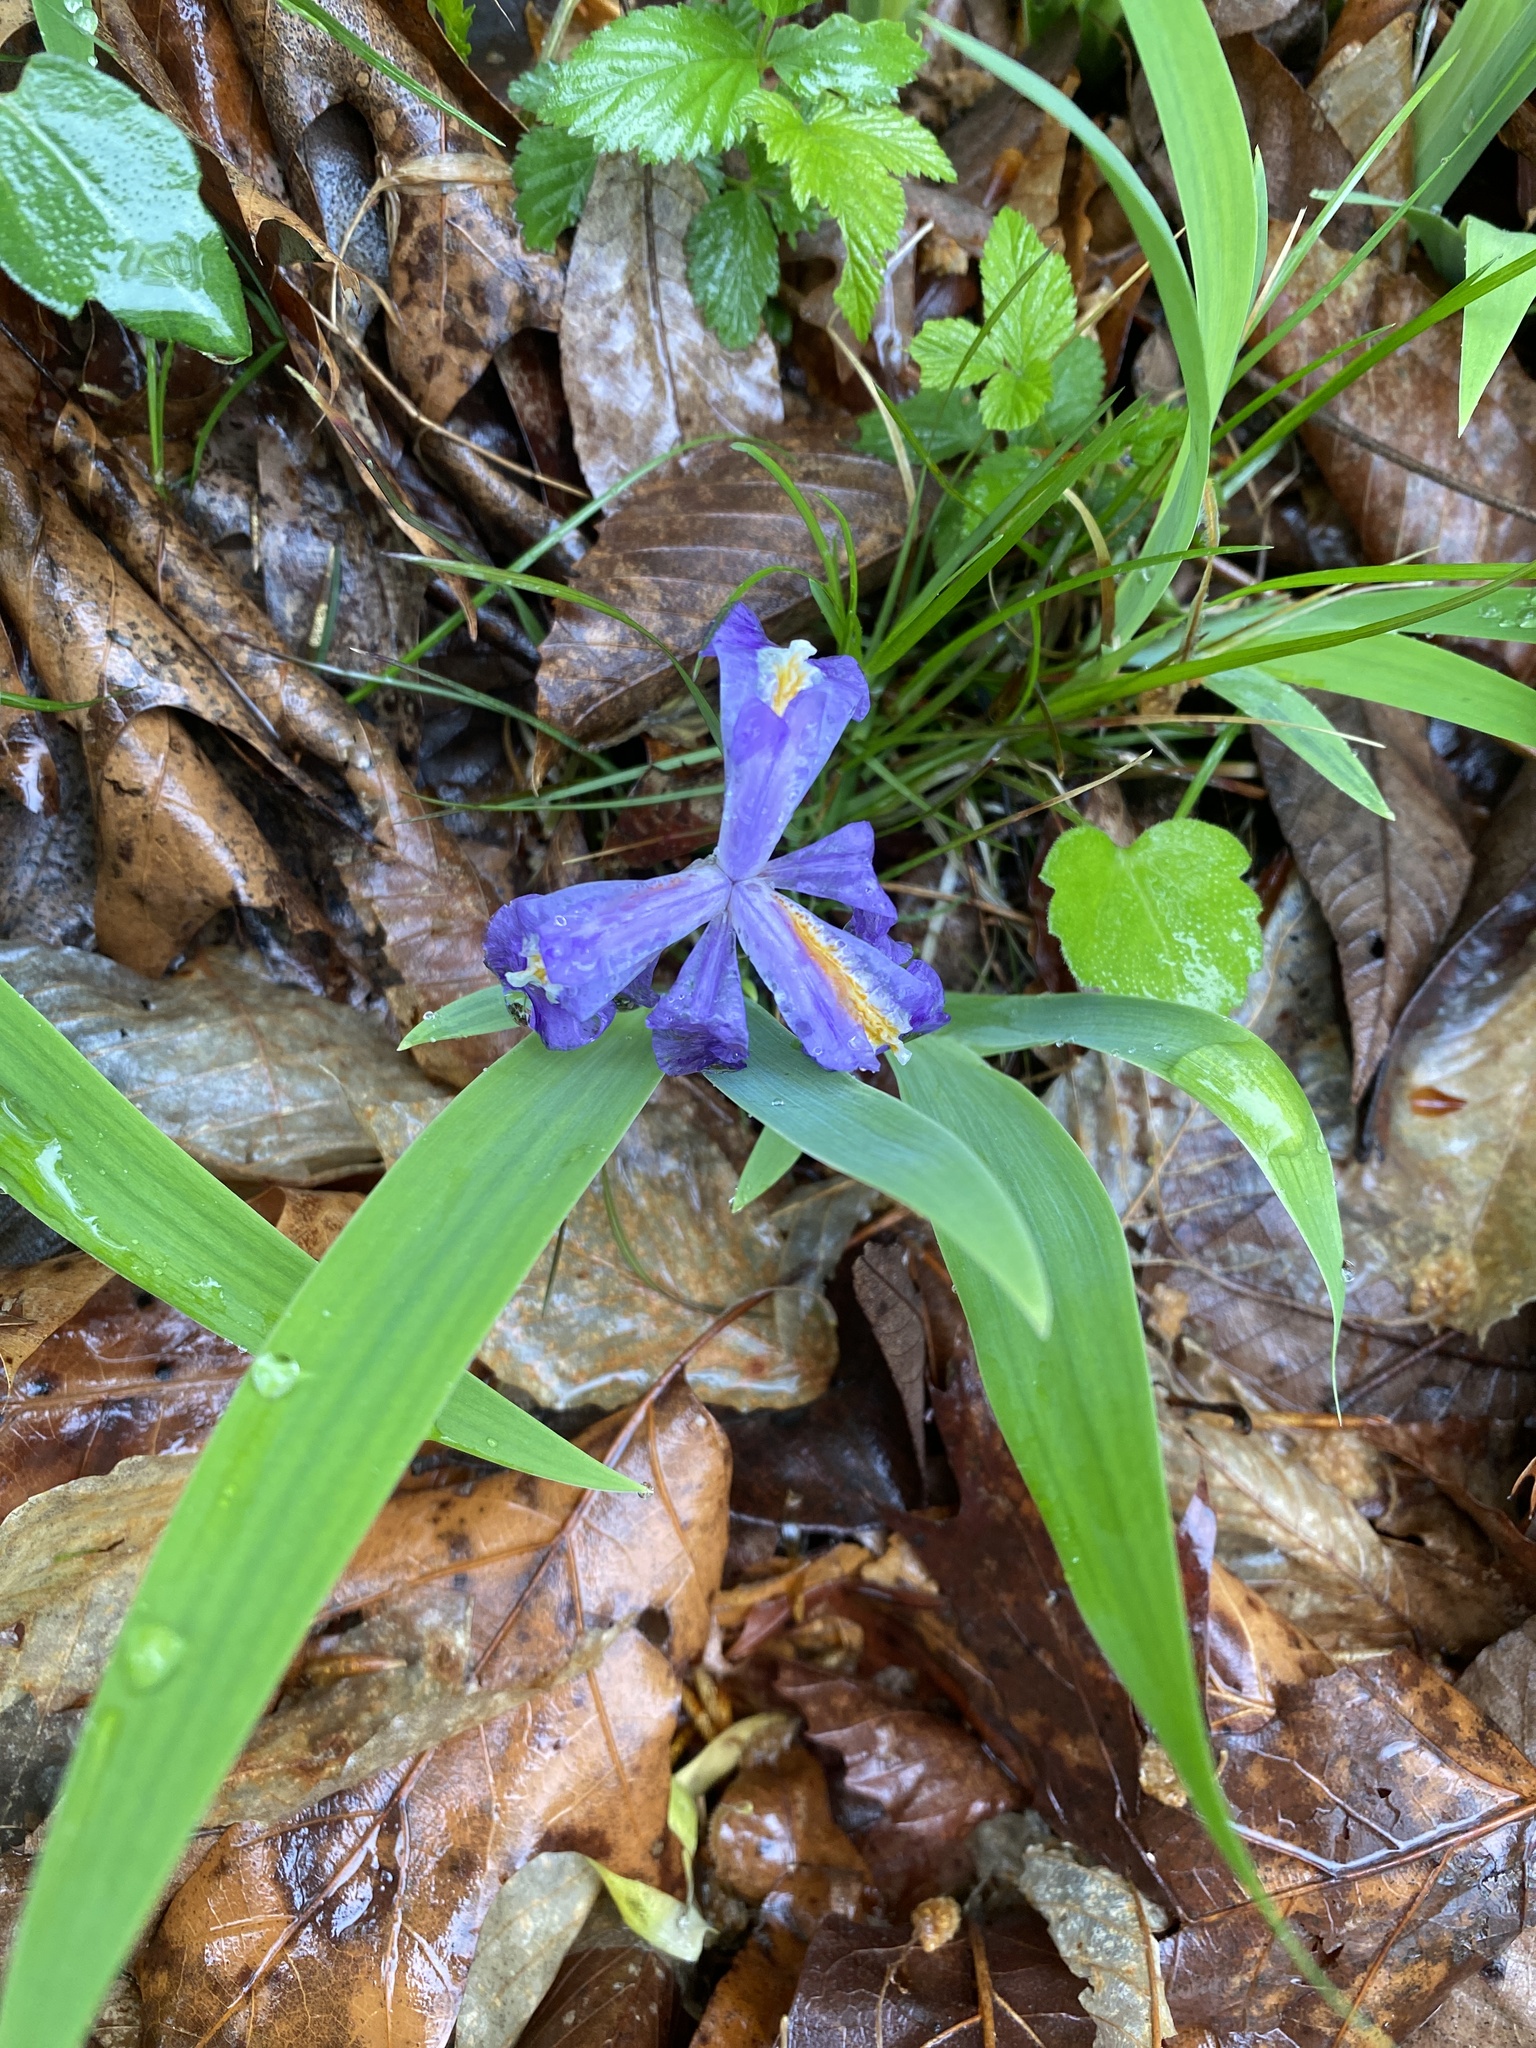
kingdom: Plantae
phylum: Tracheophyta
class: Liliopsida
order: Asparagales
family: Iridaceae
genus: Iris
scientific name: Iris cristata
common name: Crested iris
